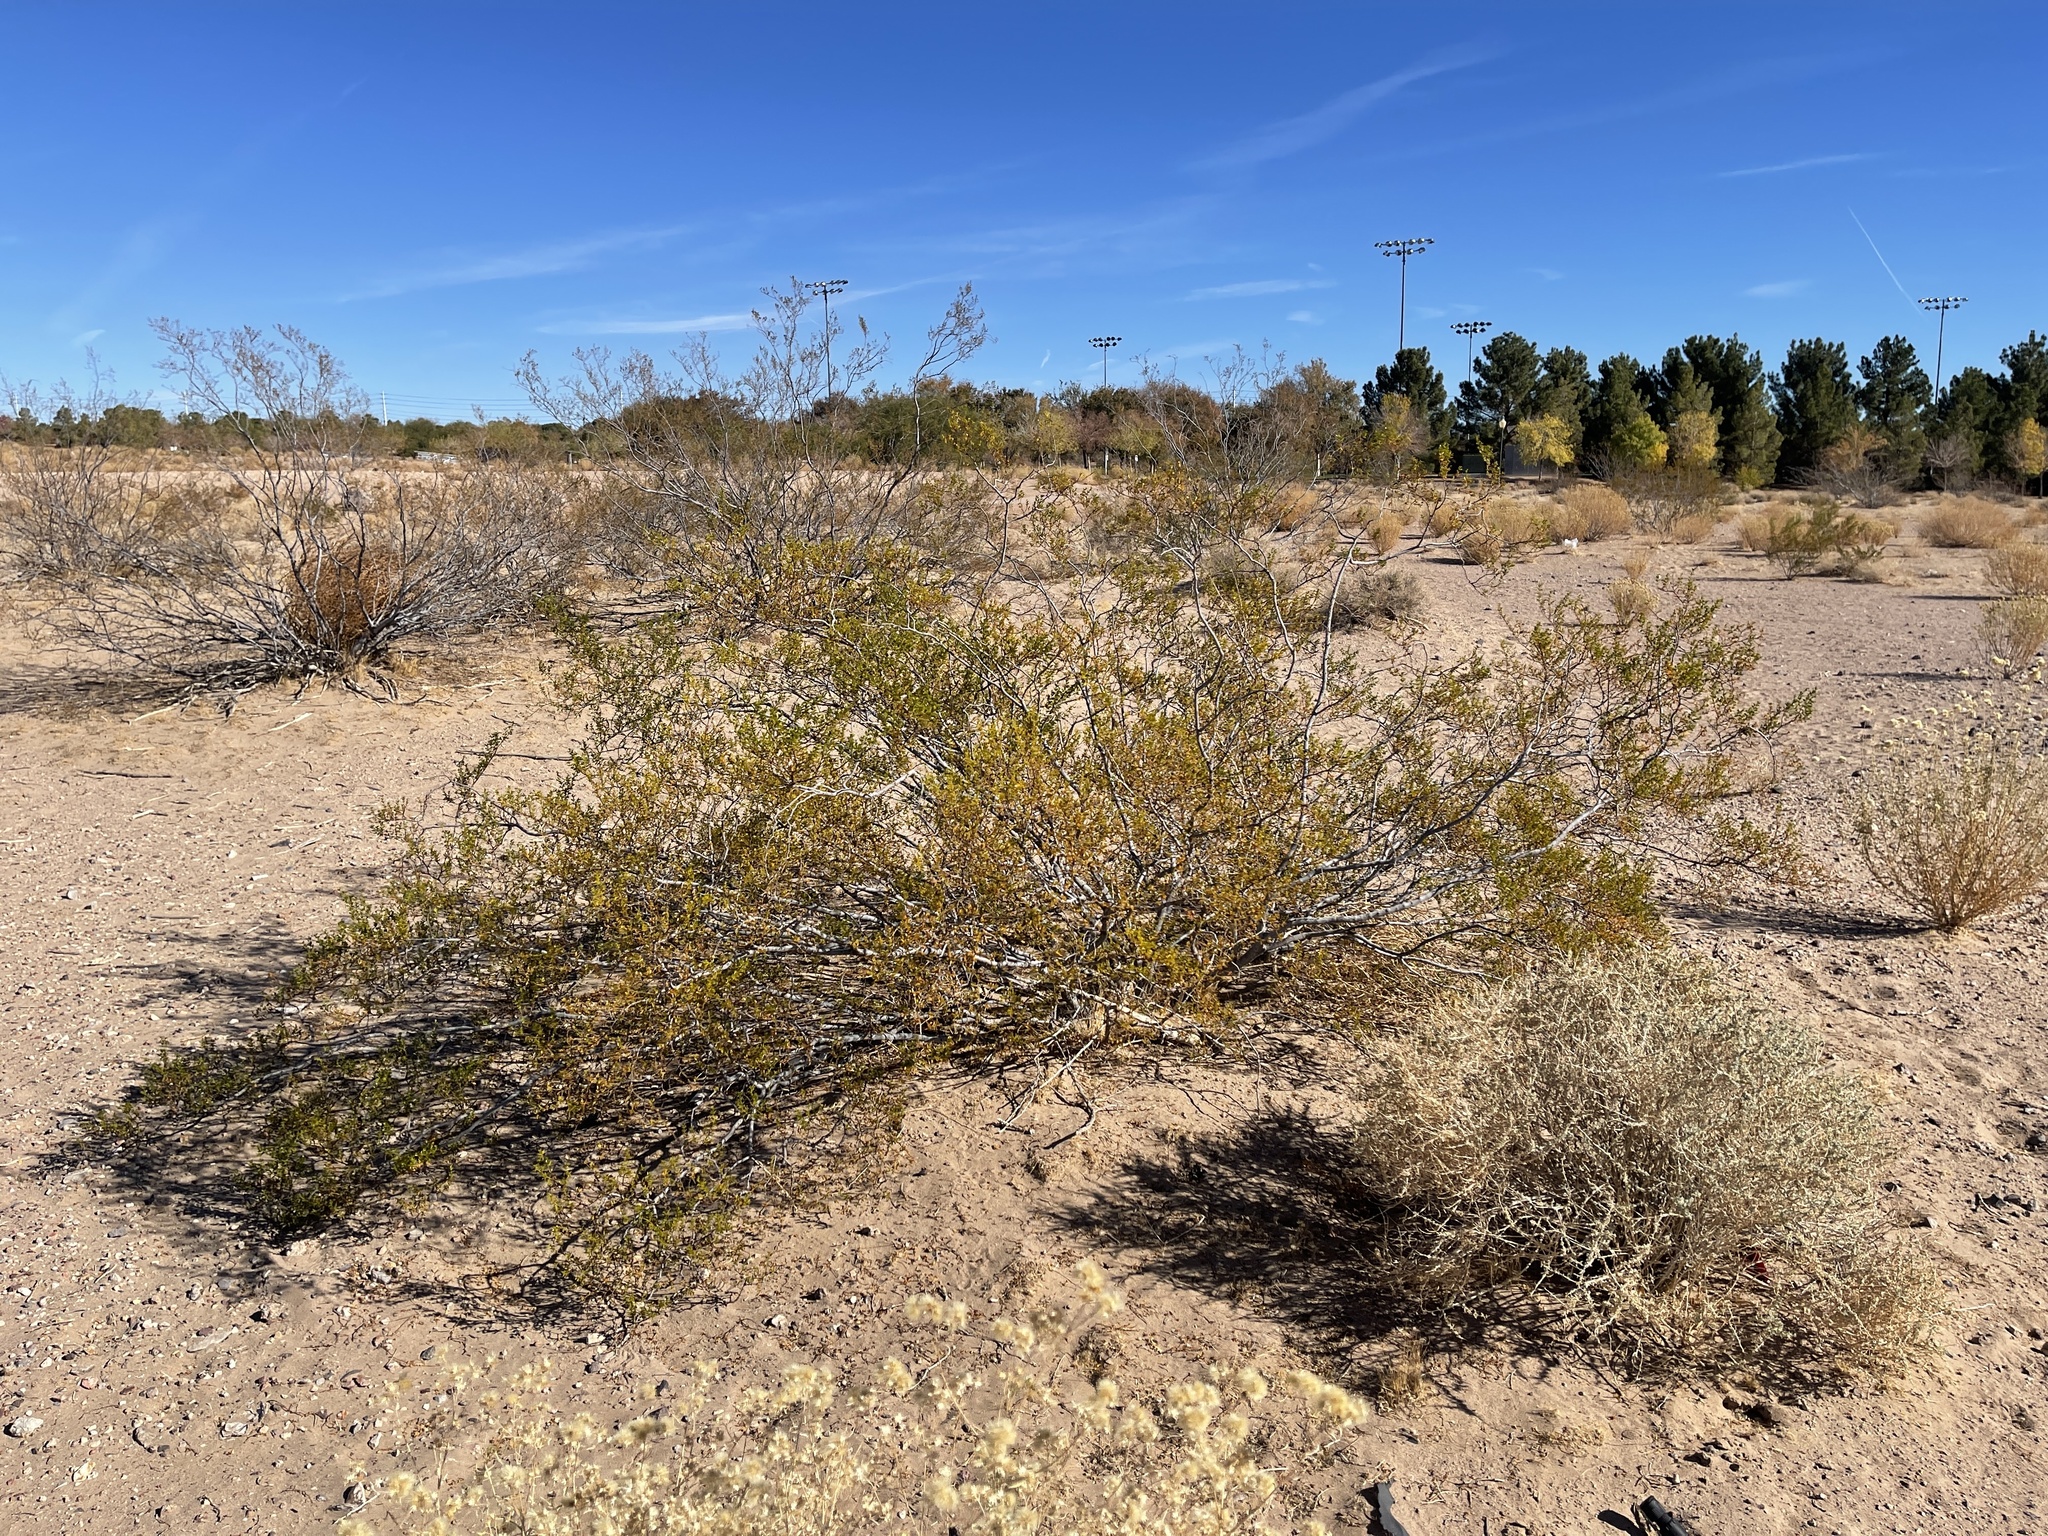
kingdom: Plantae
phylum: Tracheophyta
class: Magnoliopsida
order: Zygophyllales
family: Zygophyllaceae
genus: Larrea
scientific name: Larrea tridentata
